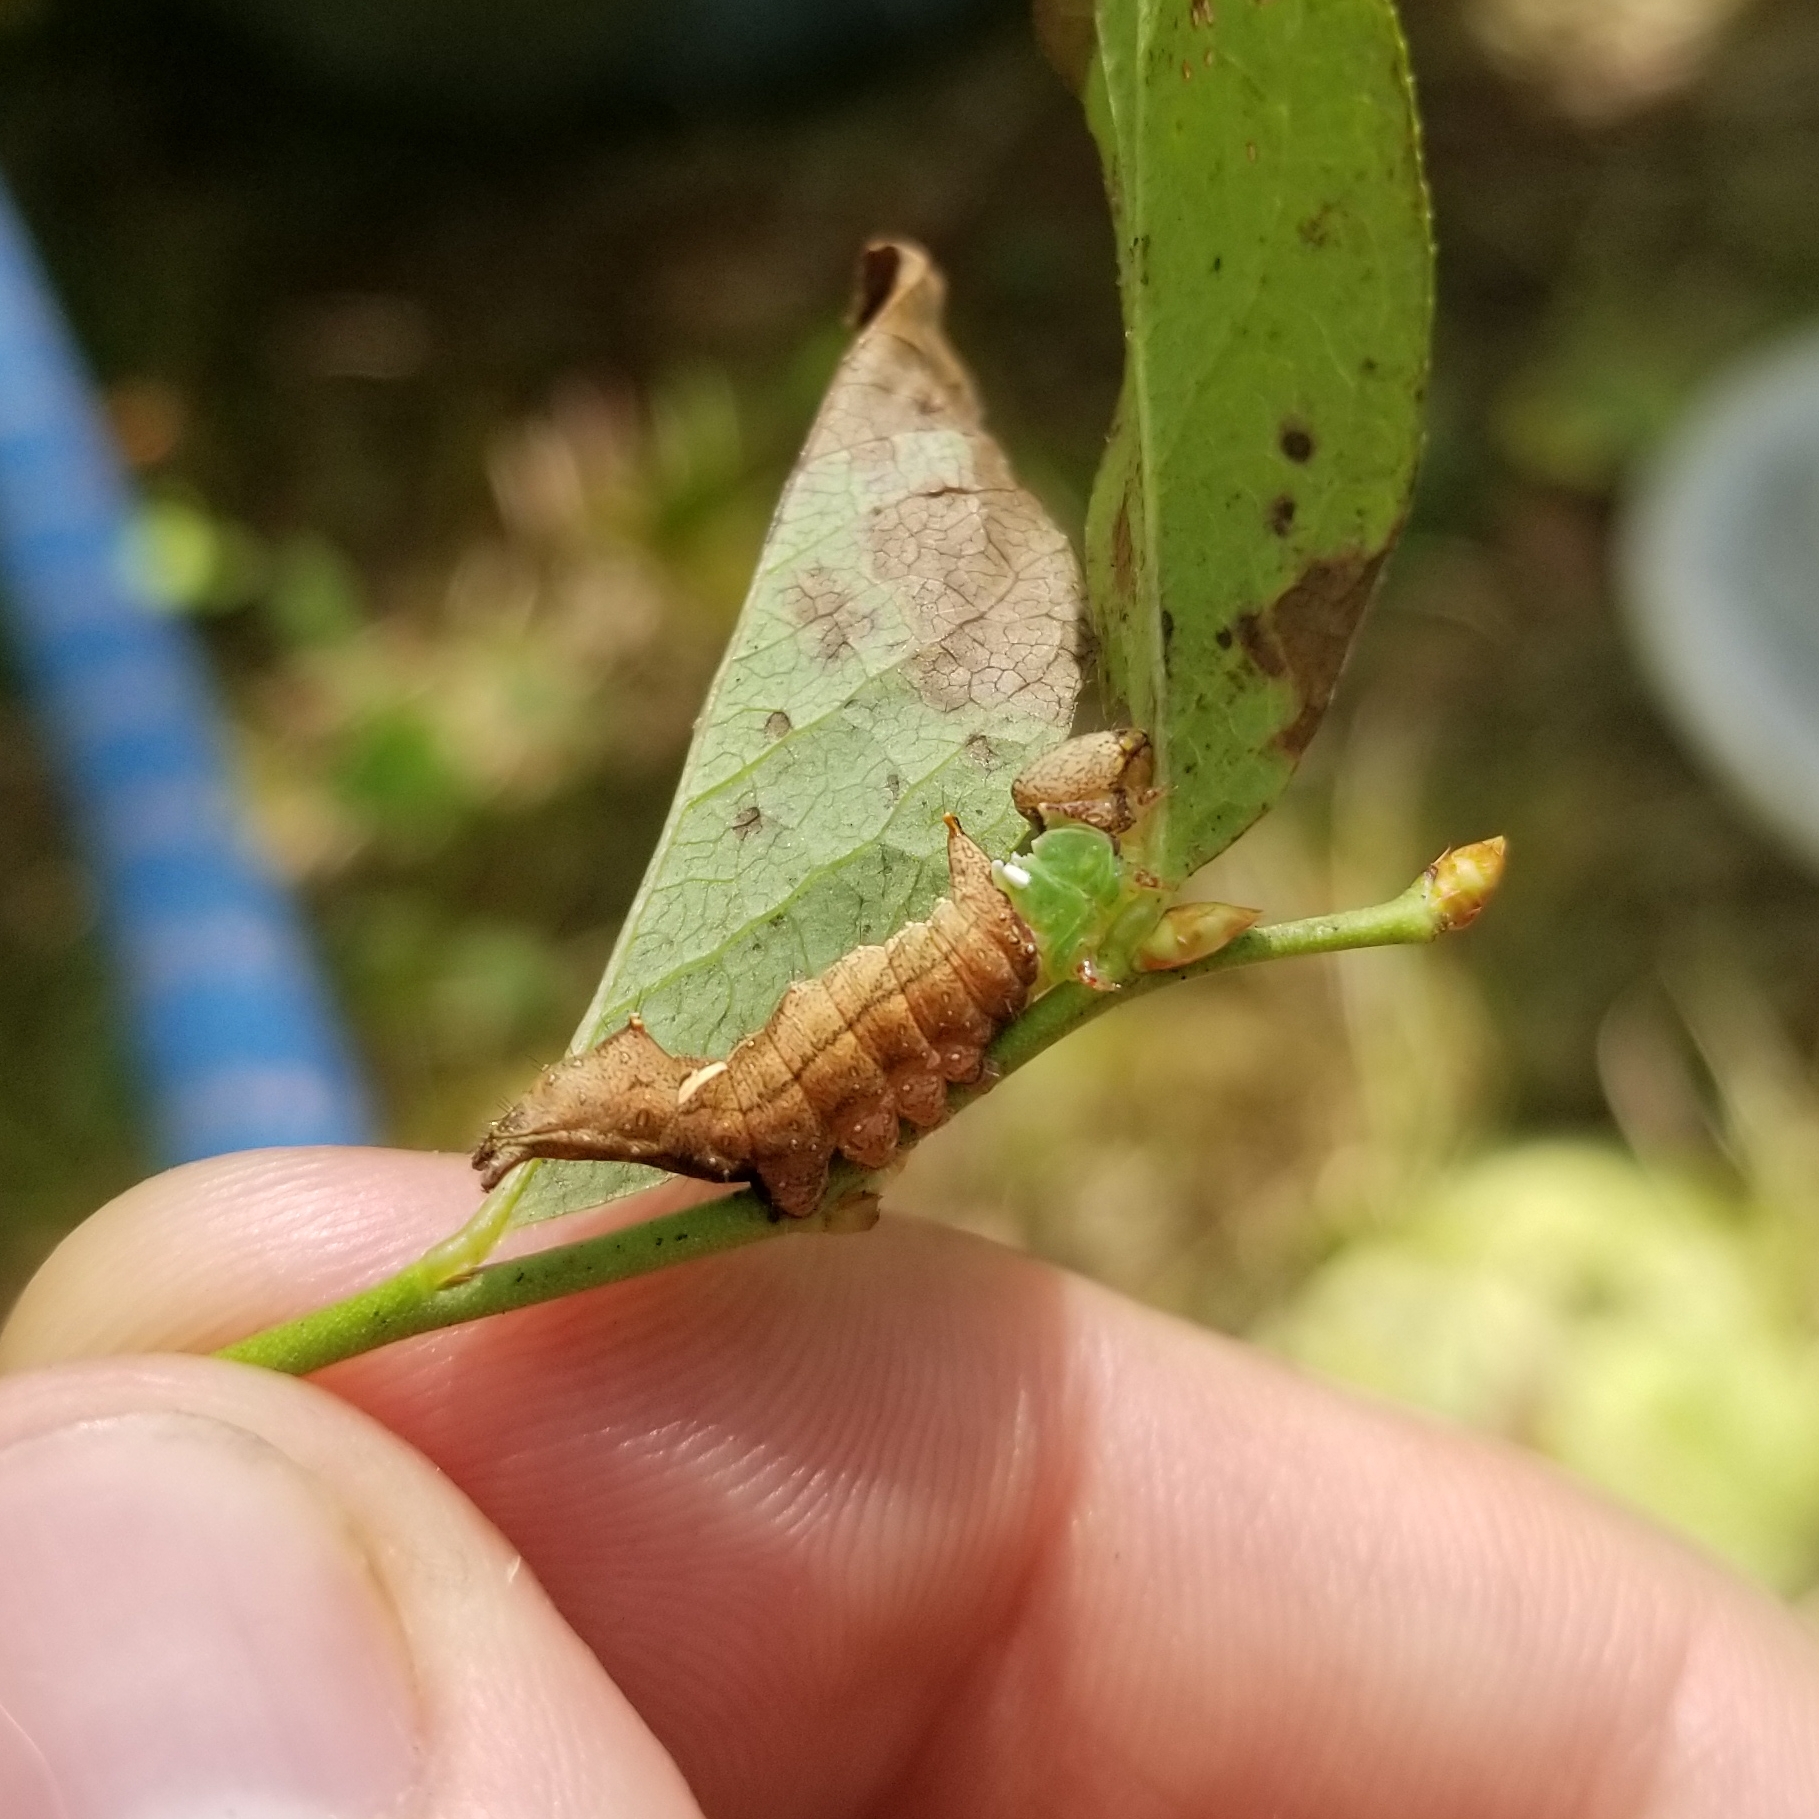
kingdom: Animalia
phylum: Arthropoda
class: Insecta
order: Lepidoptera
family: Notodontidae
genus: Schizura
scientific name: Schizura
